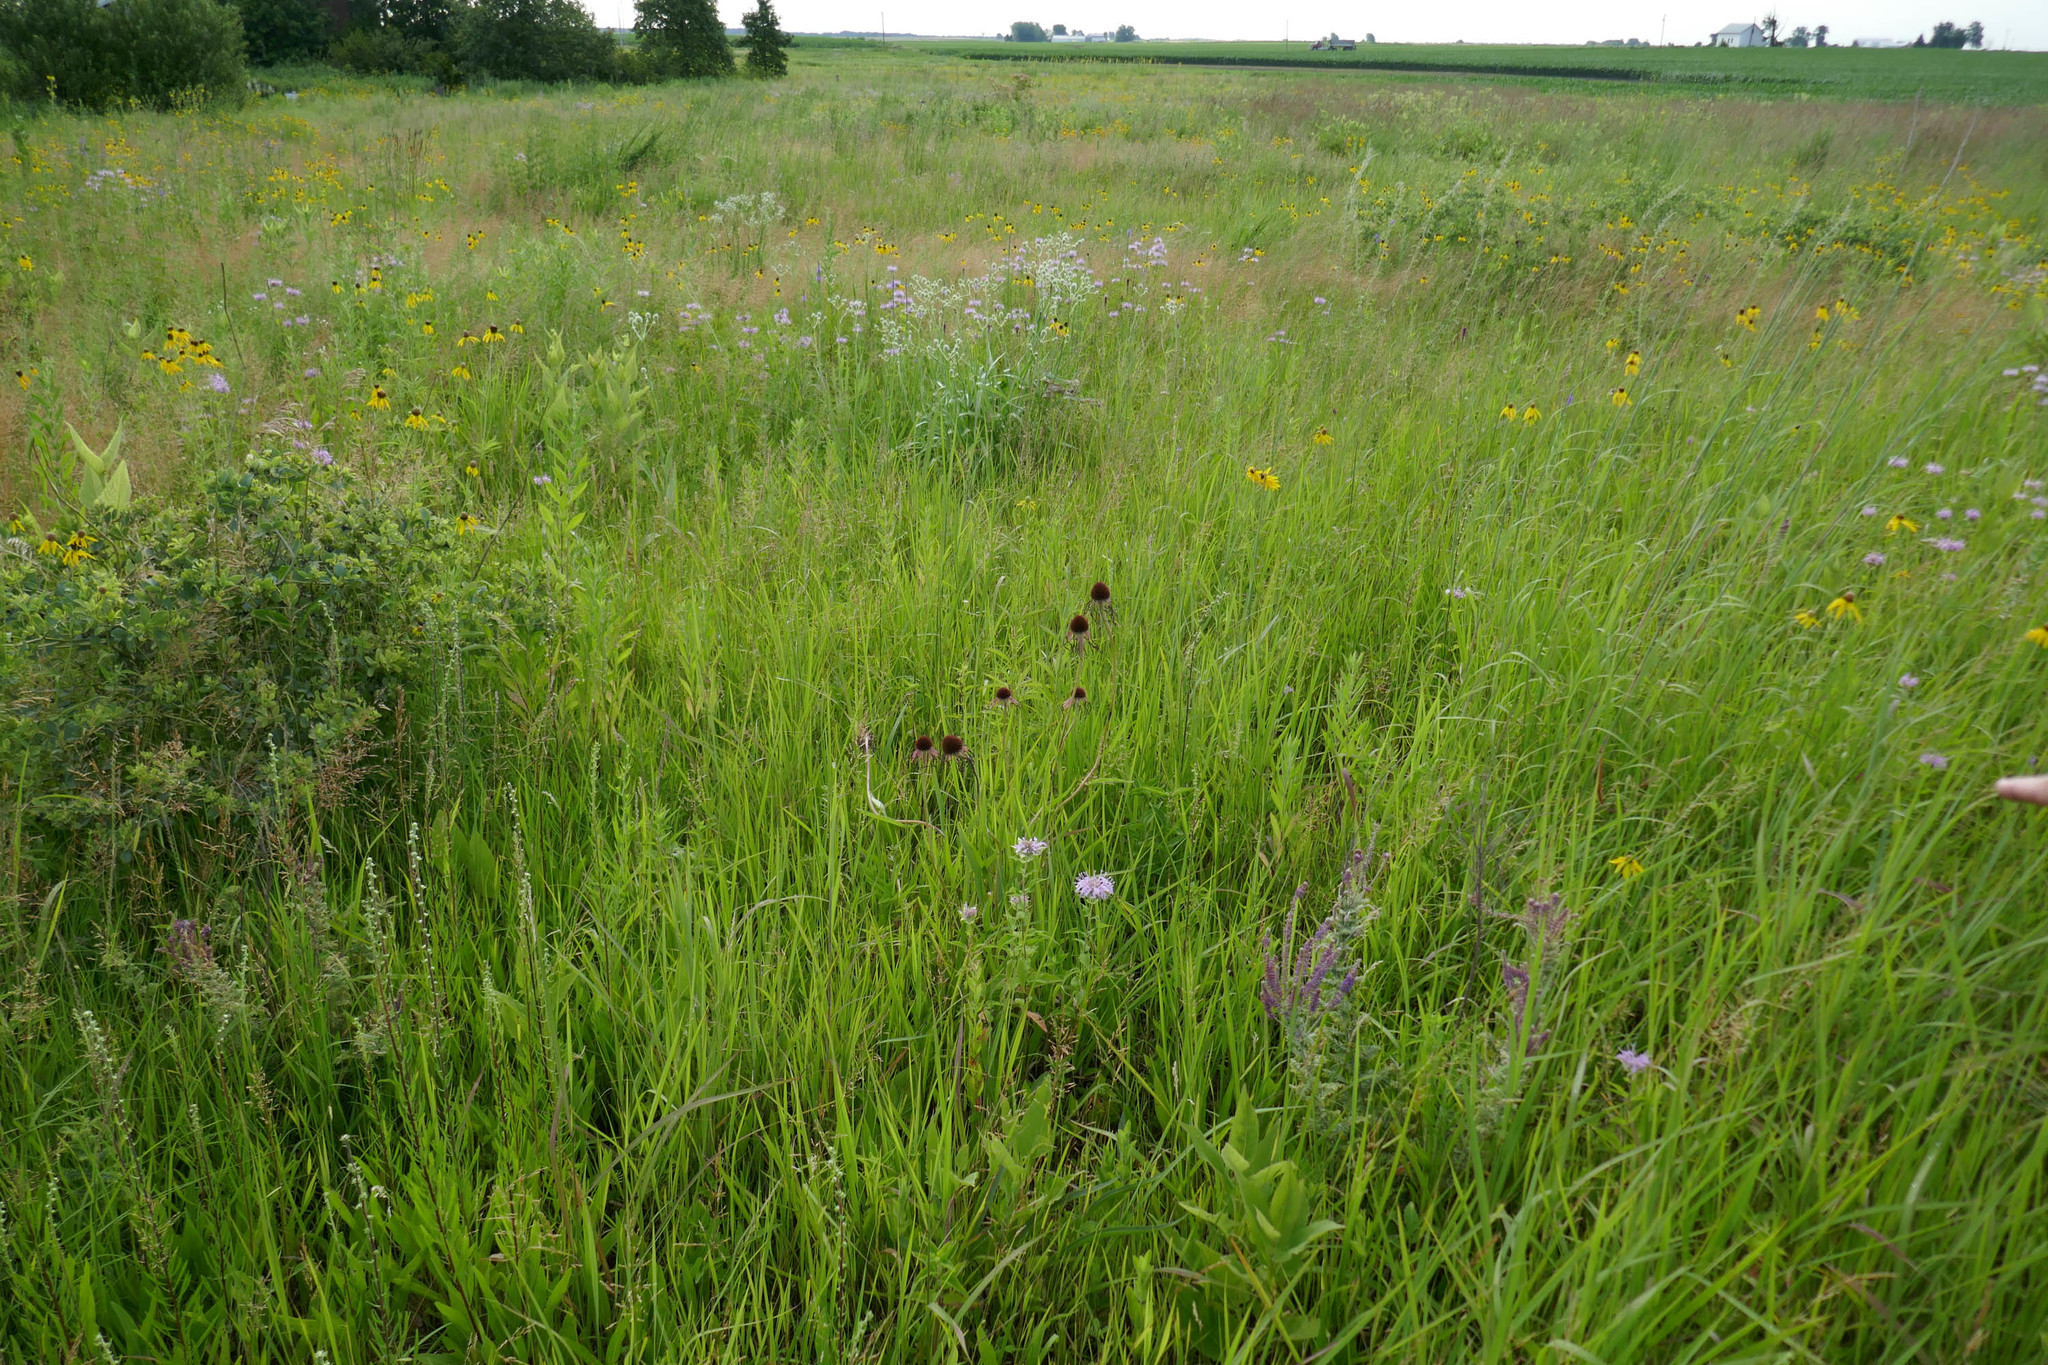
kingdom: Plantae
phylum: Tracheophyta
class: Magnoliopsida
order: Asterales
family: Asteraceae
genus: Echinacea
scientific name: Echinacea pallida
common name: Pale echinacea
